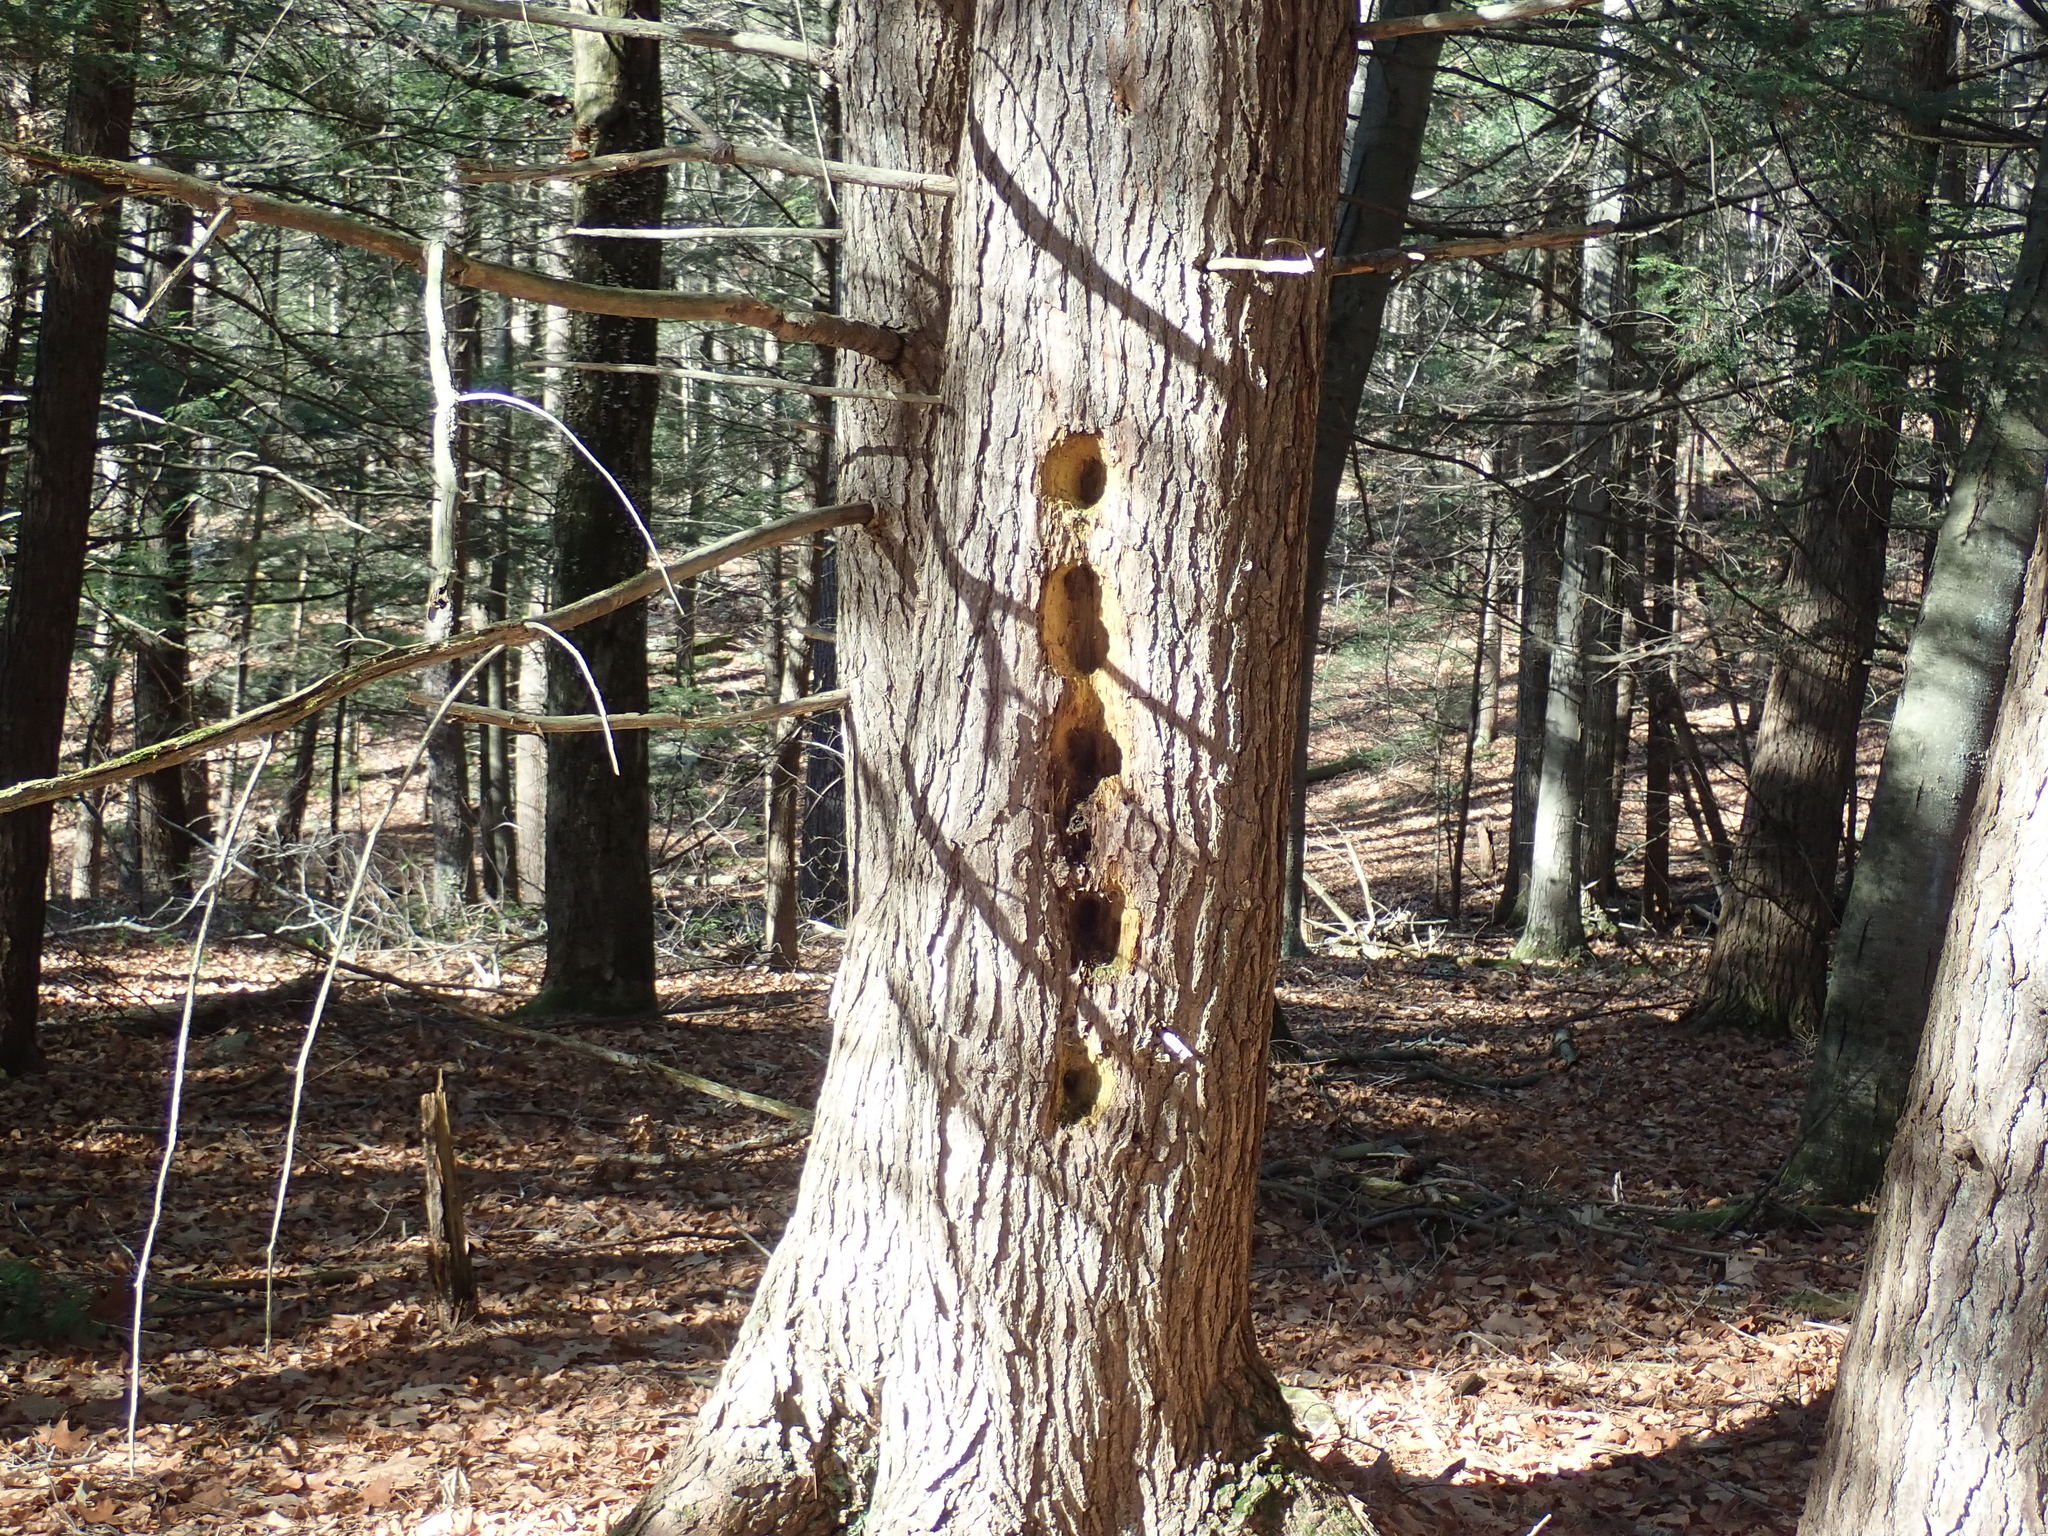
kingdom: Animalia
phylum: Chordata
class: Aves
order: Piciformes
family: Picidae
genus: Dryocopus
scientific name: Dryocopus pileatus
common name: Pileated woodpecker
